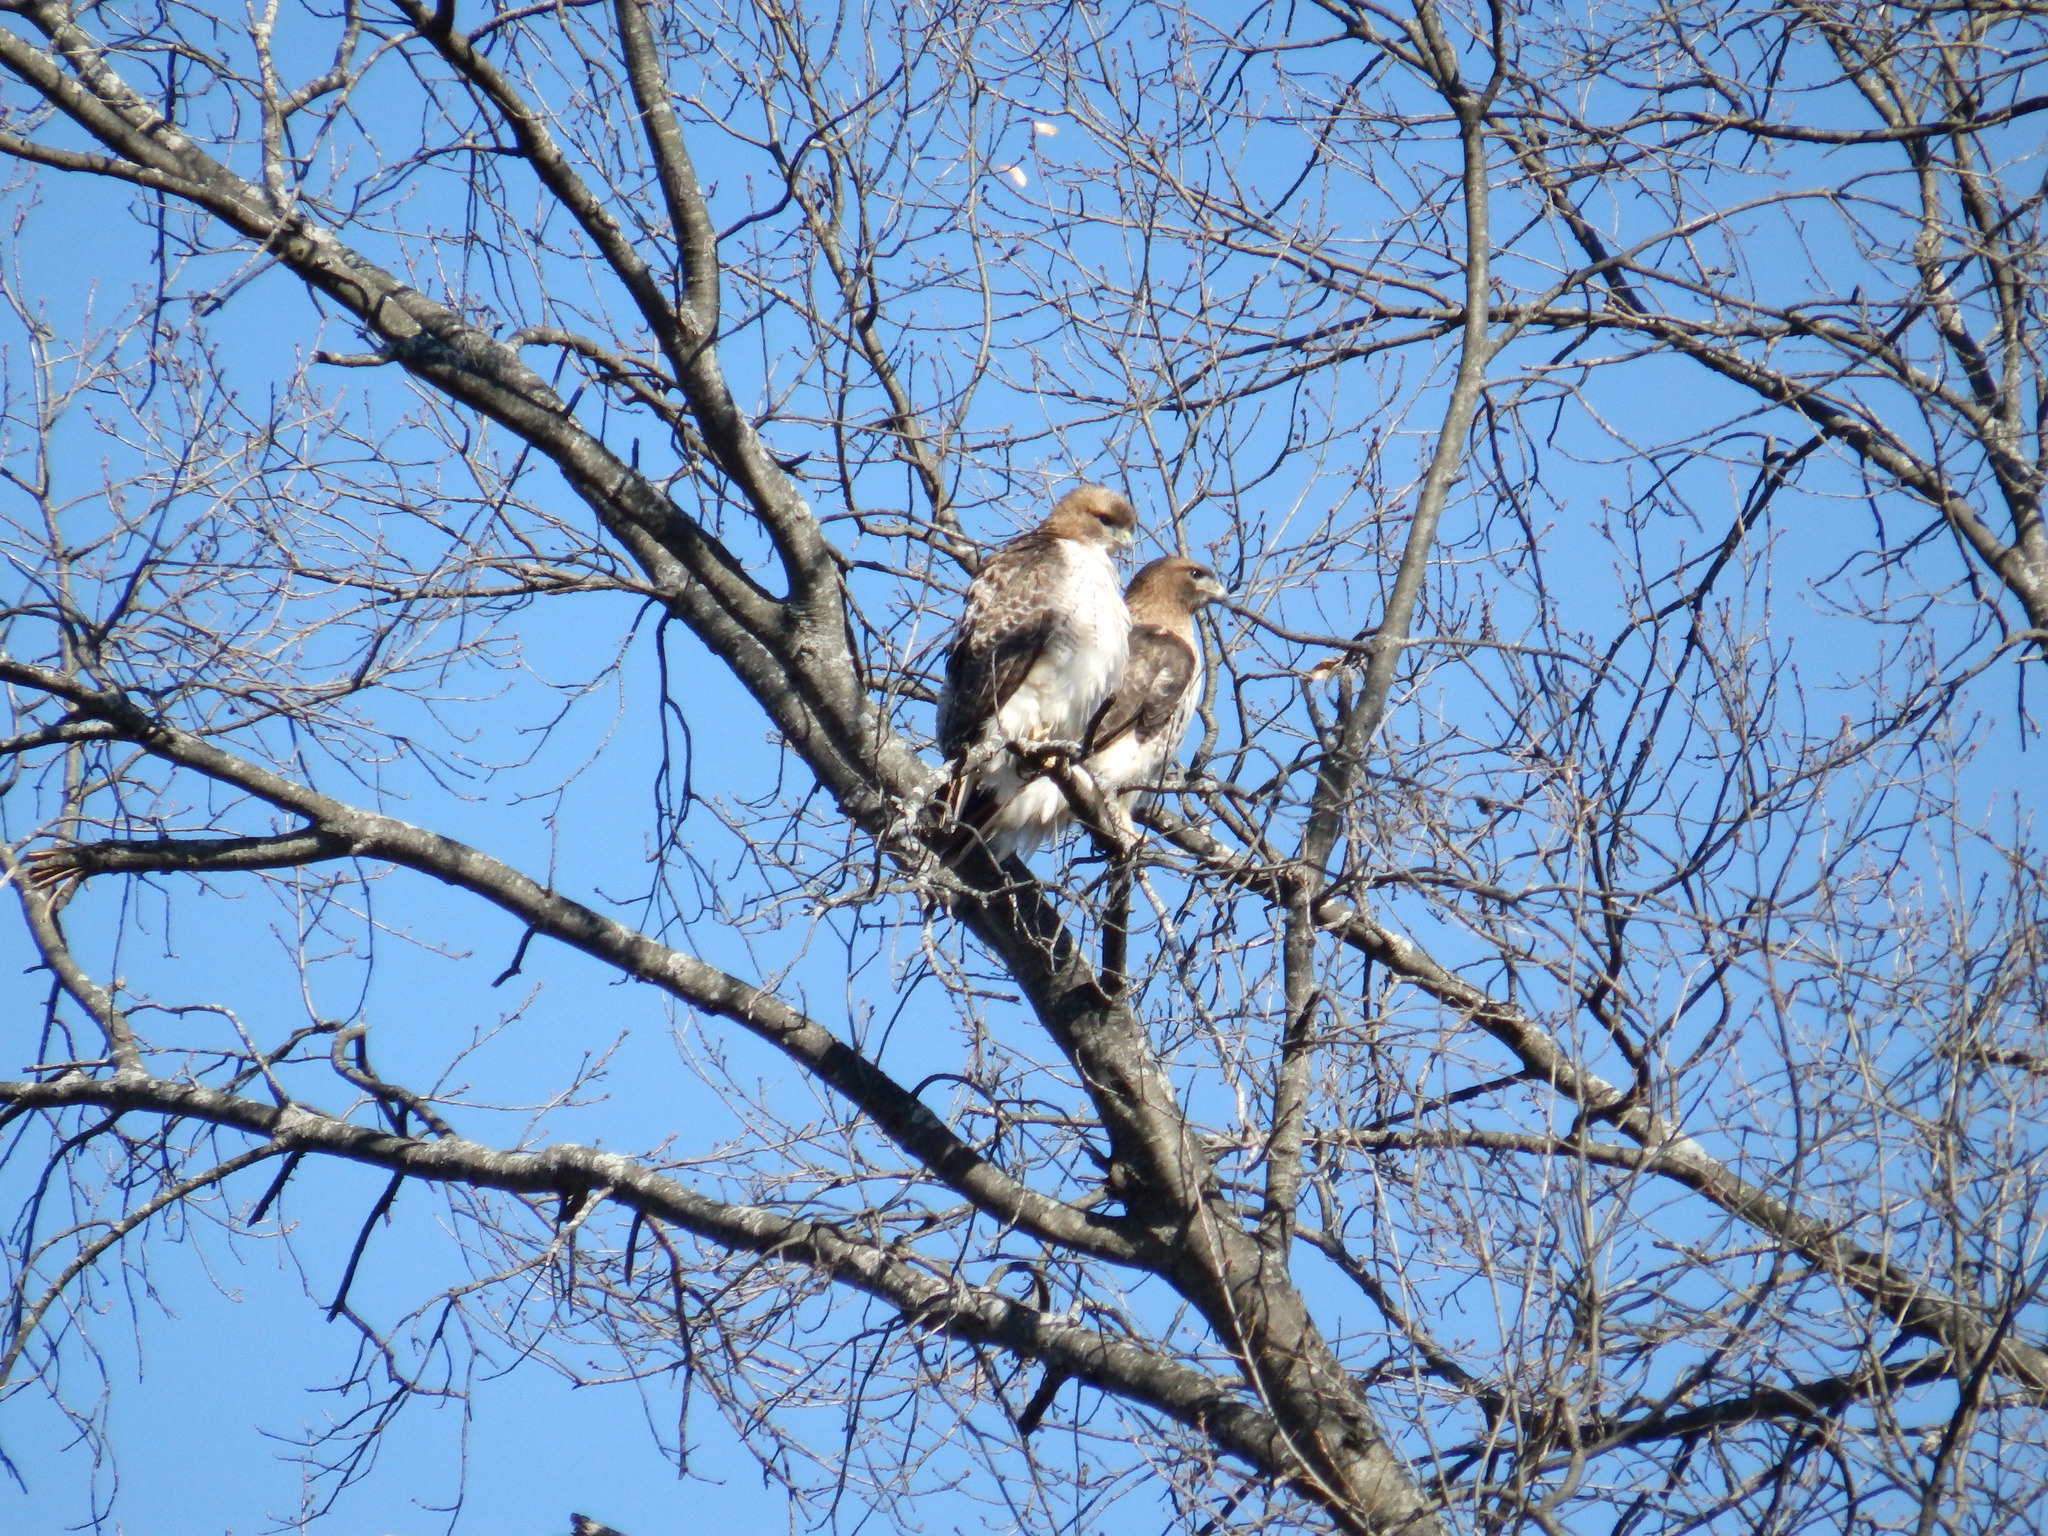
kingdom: Animalia
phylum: Chordata
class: Aves
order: Accipitriformes
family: Accipitridae
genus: Buteo
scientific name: Buteo jamaicensis
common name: Red-tailed hawk
